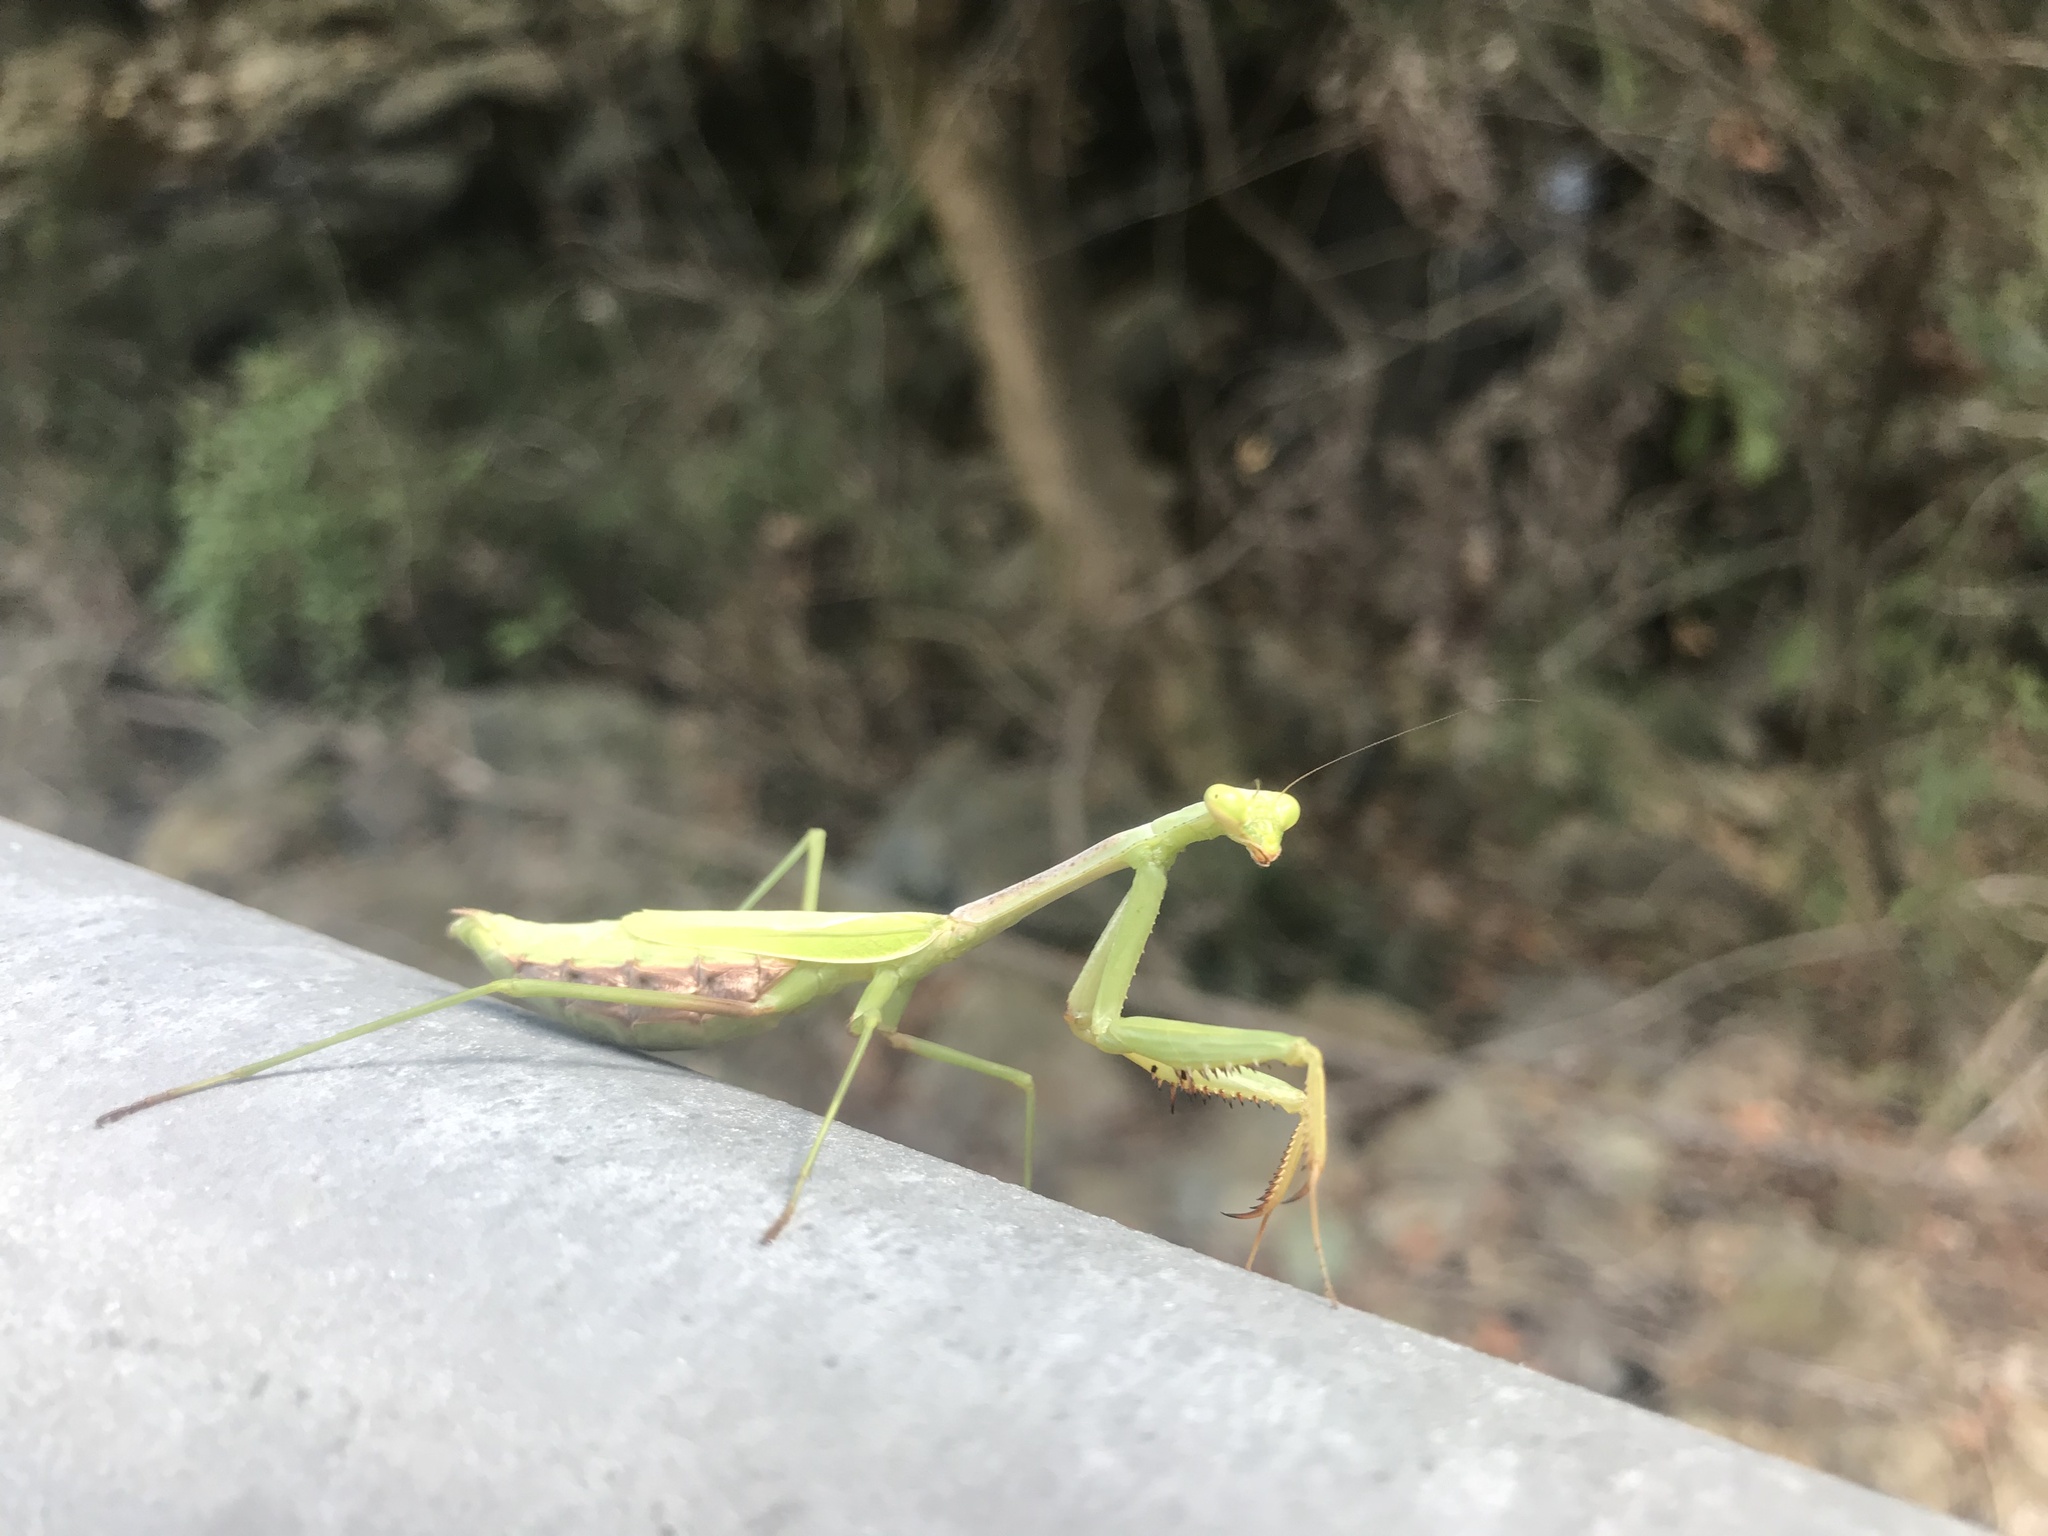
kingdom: Animalia
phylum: Arthropoda
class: Insecta
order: Mantodea
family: Mantidae
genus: Stagmomantis
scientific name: Stagmomantis carolina
